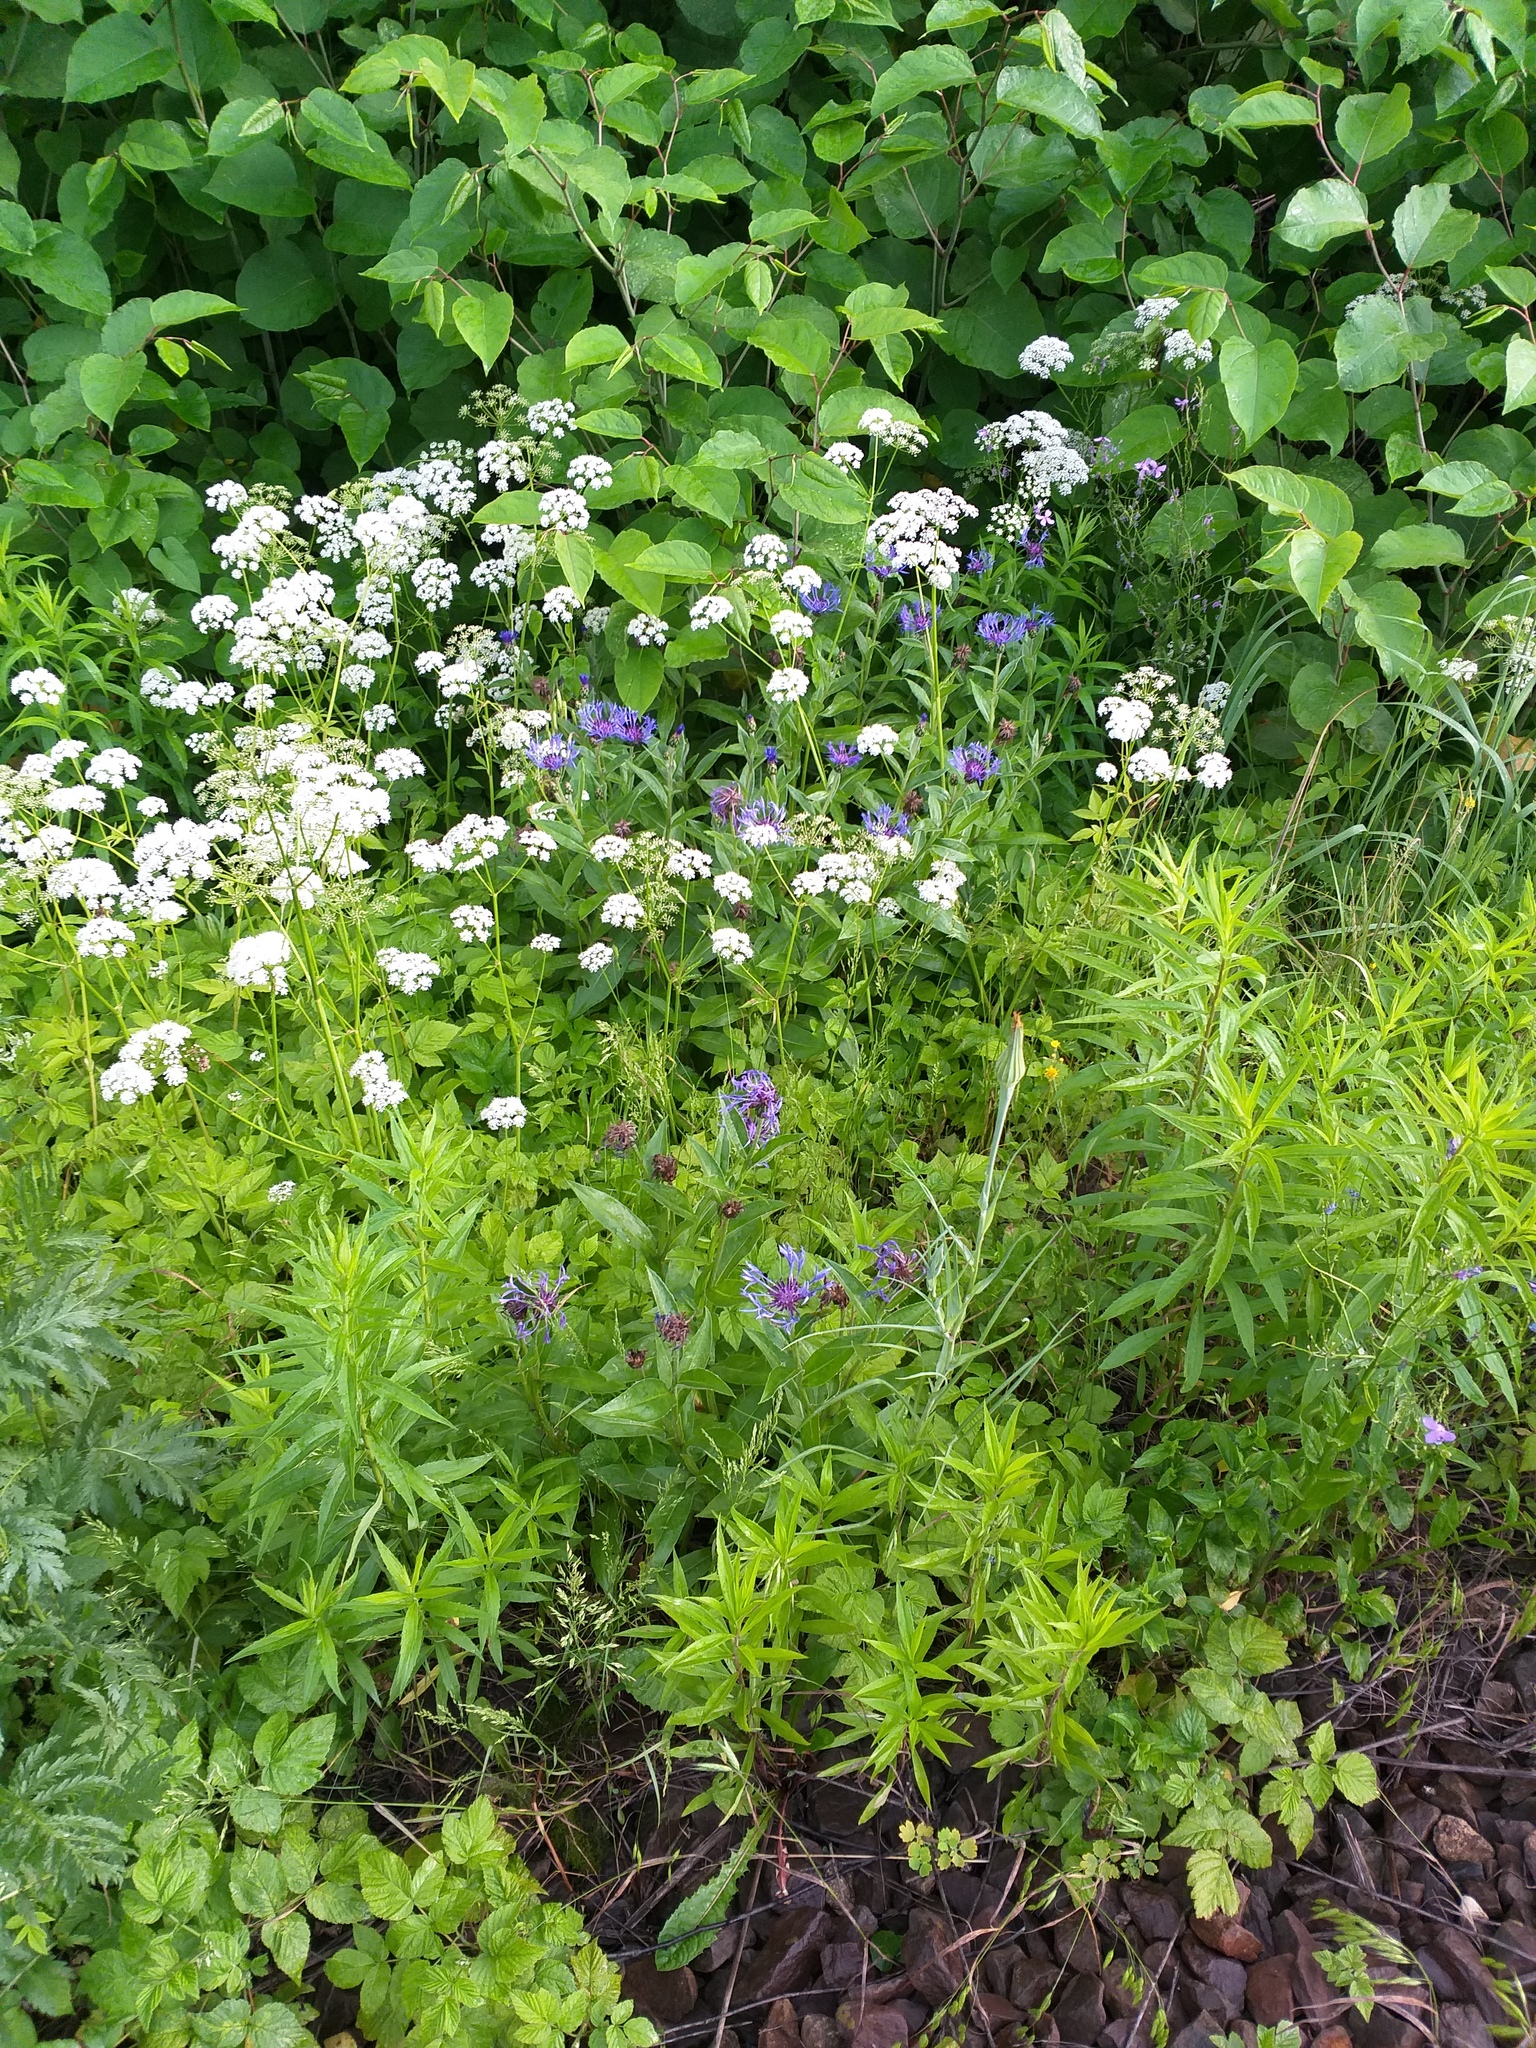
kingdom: Plantae
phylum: Tracheophyta
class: Magnoliopsida
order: Asterales
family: Asteraceae
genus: Centaurea
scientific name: Centaurea montana
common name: Perennial cornflower
